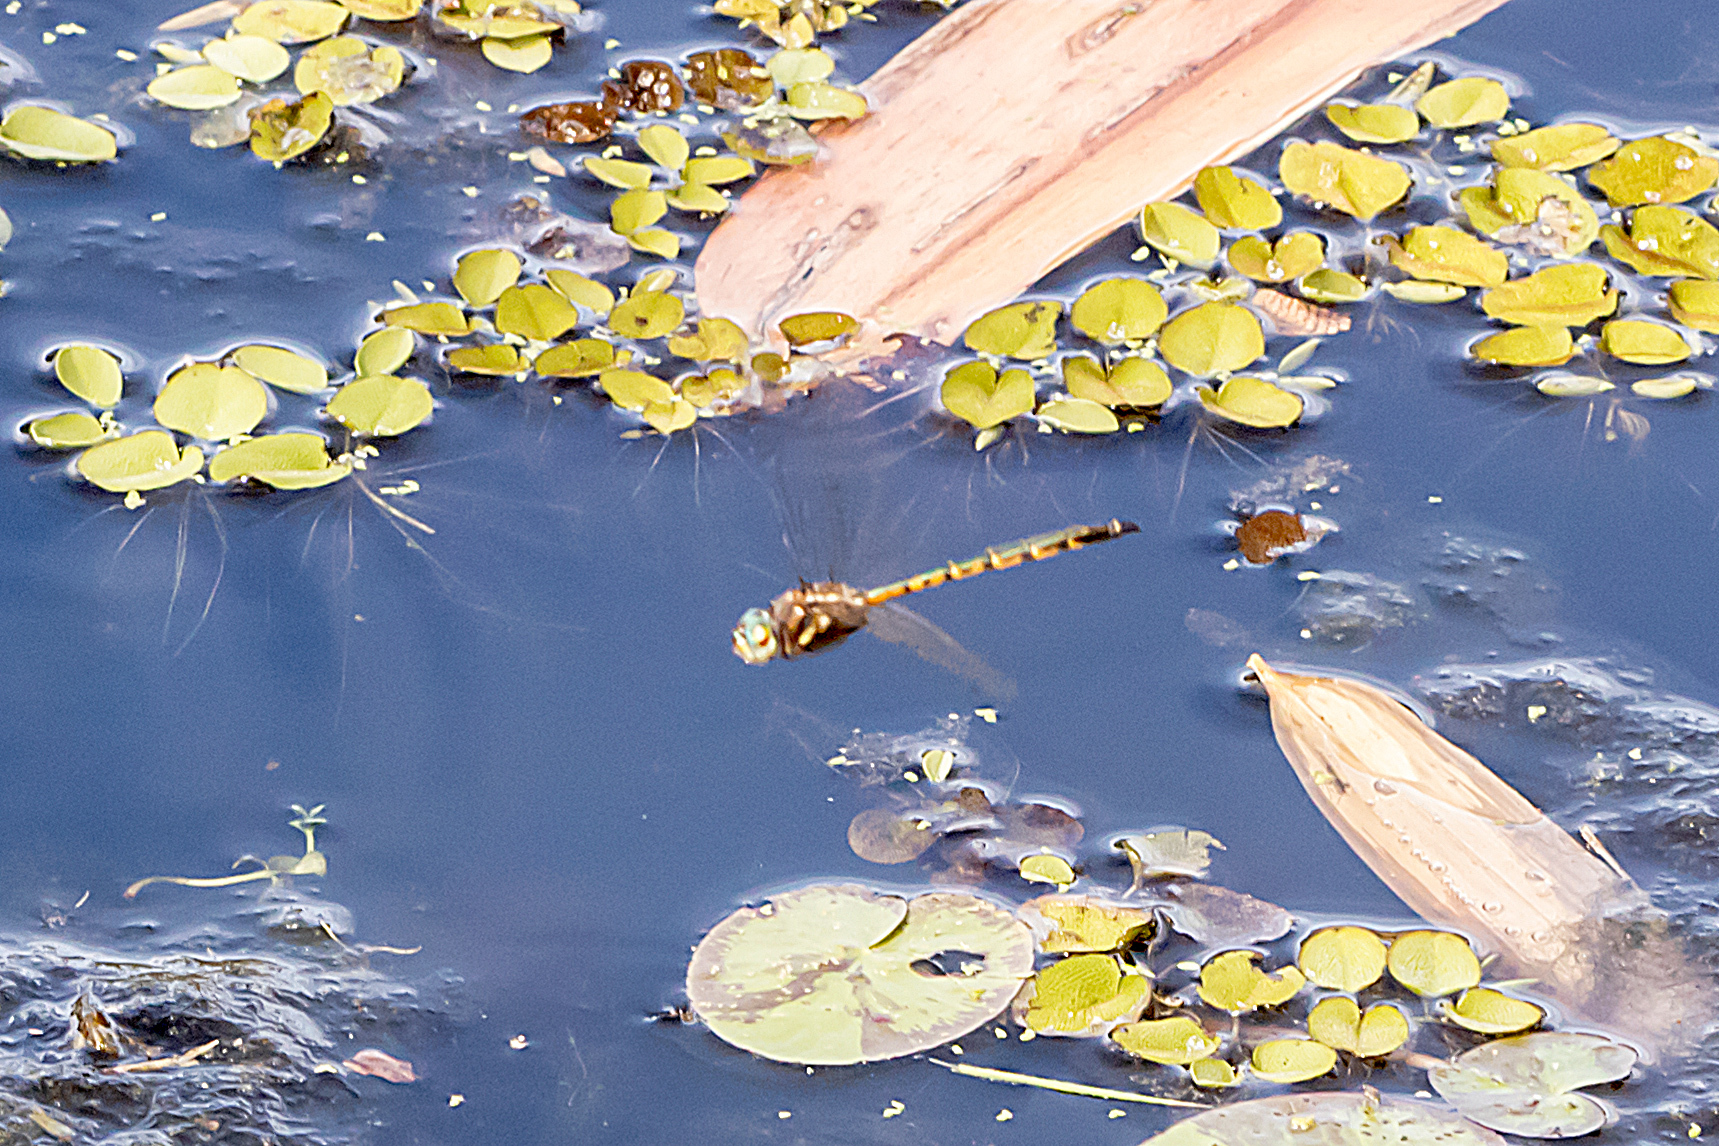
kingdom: Animalia
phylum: Arthropoda
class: Insecta
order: Odonata
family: Corduliidae
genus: Hemicordulia
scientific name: Hemicordulia australiae
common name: Sentry dragonfly
